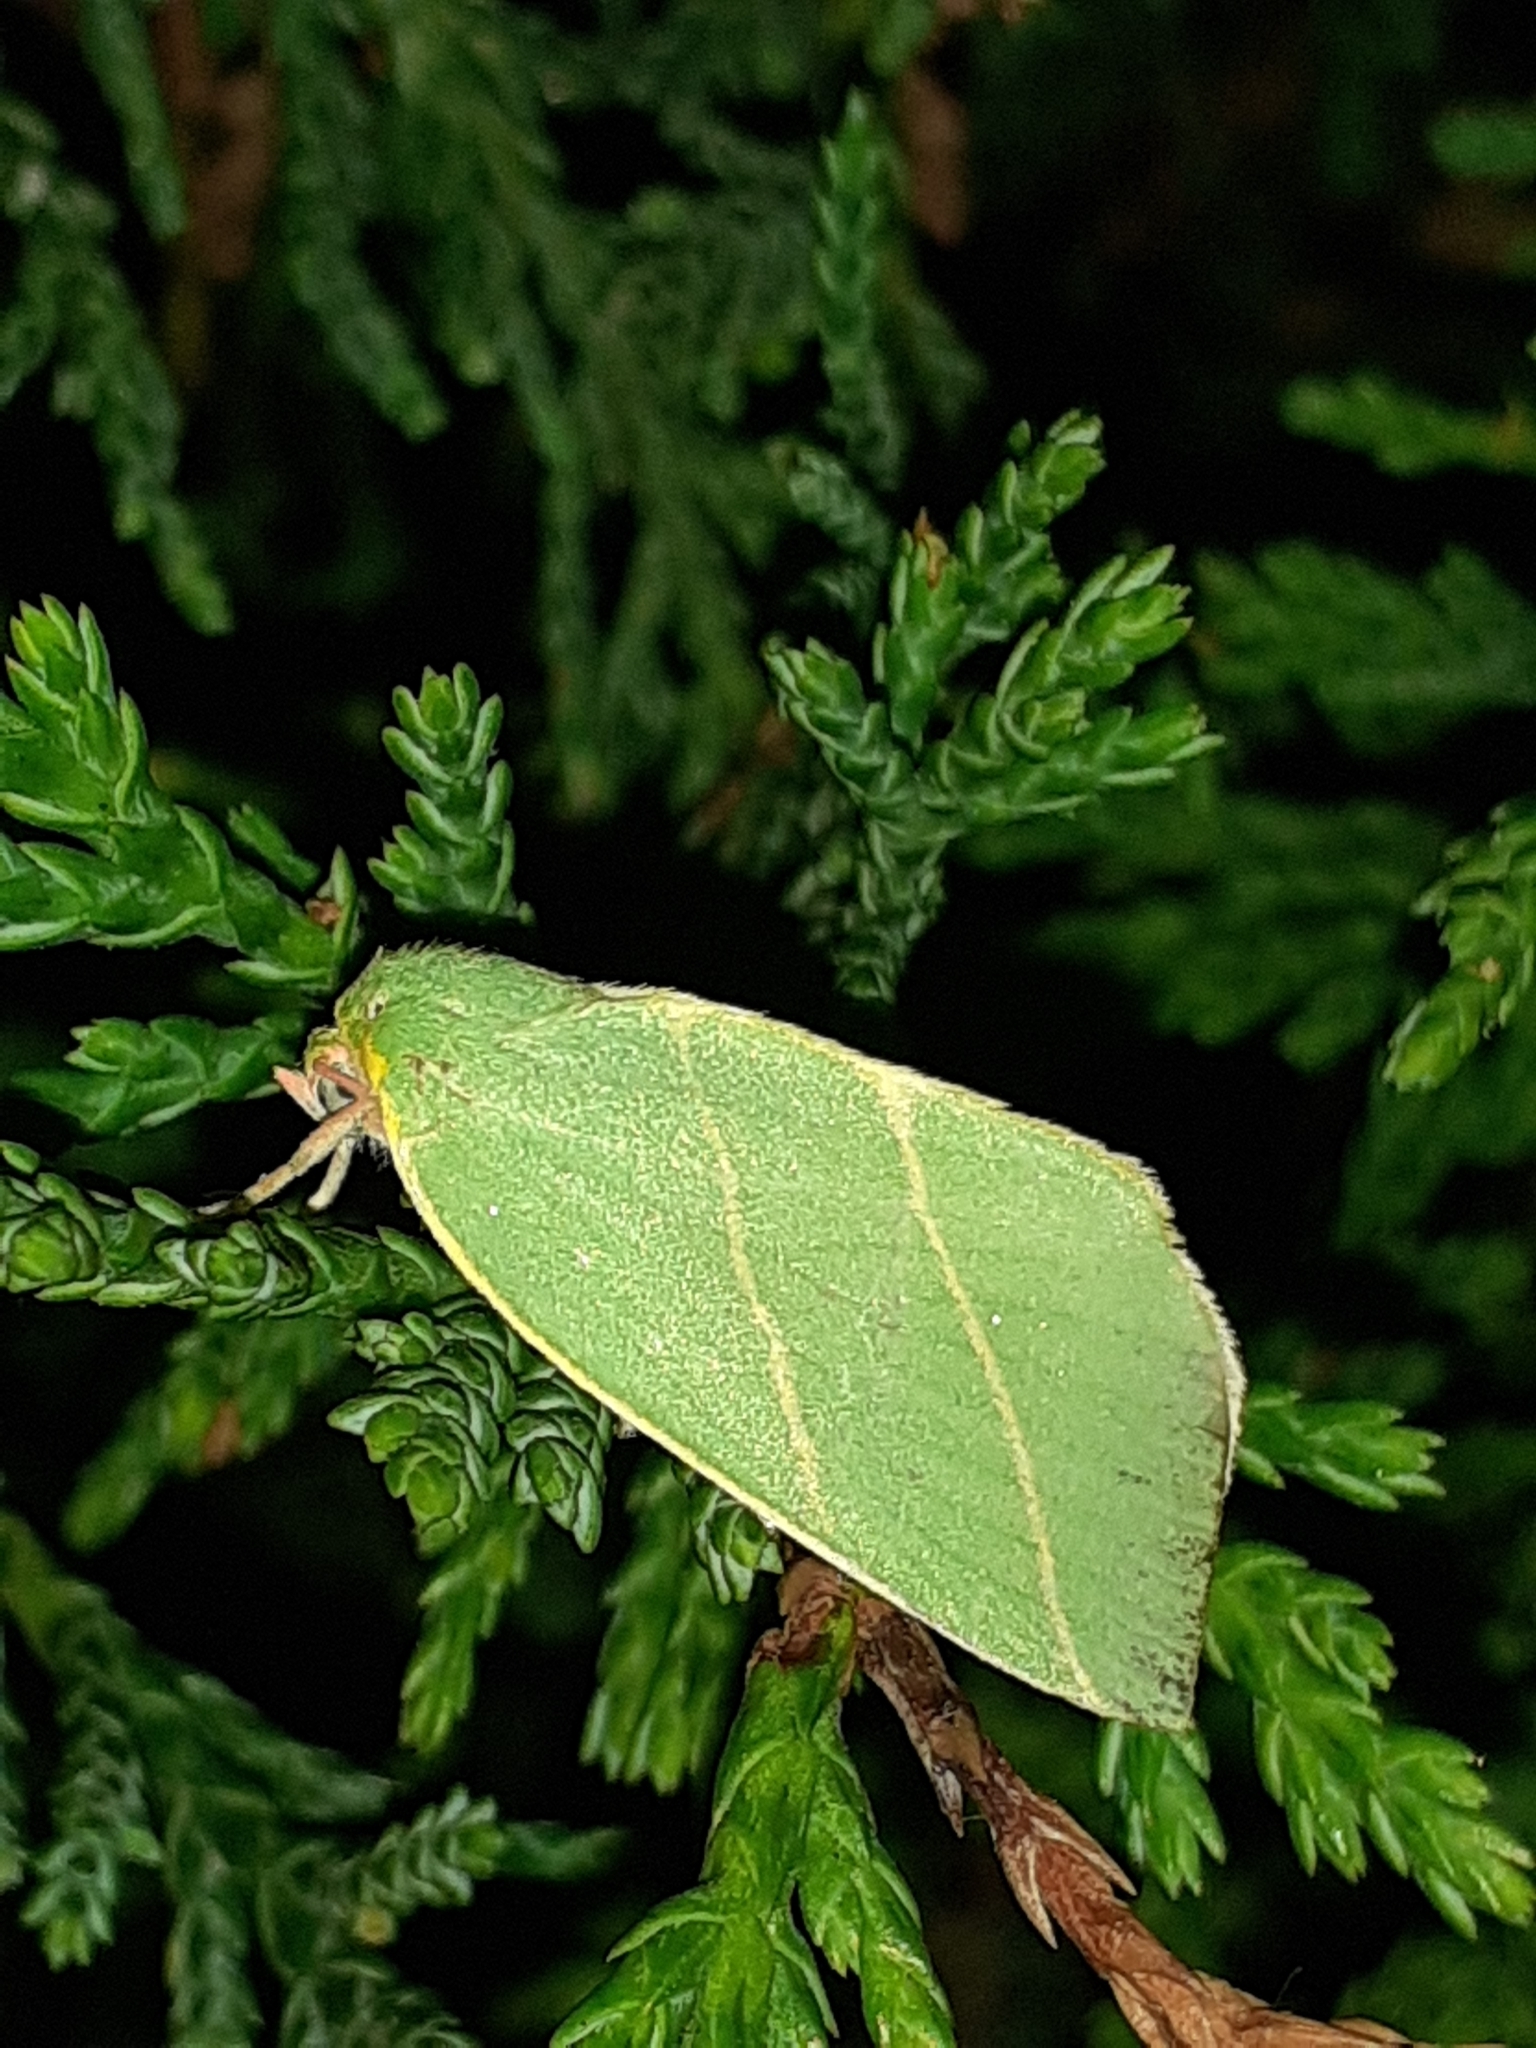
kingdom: Animalia
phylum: Arthropoda
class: Insecta
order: Lepidoptera
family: Nolidae
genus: Bena
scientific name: Bena bicolorana
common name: Scarce silver-lines
